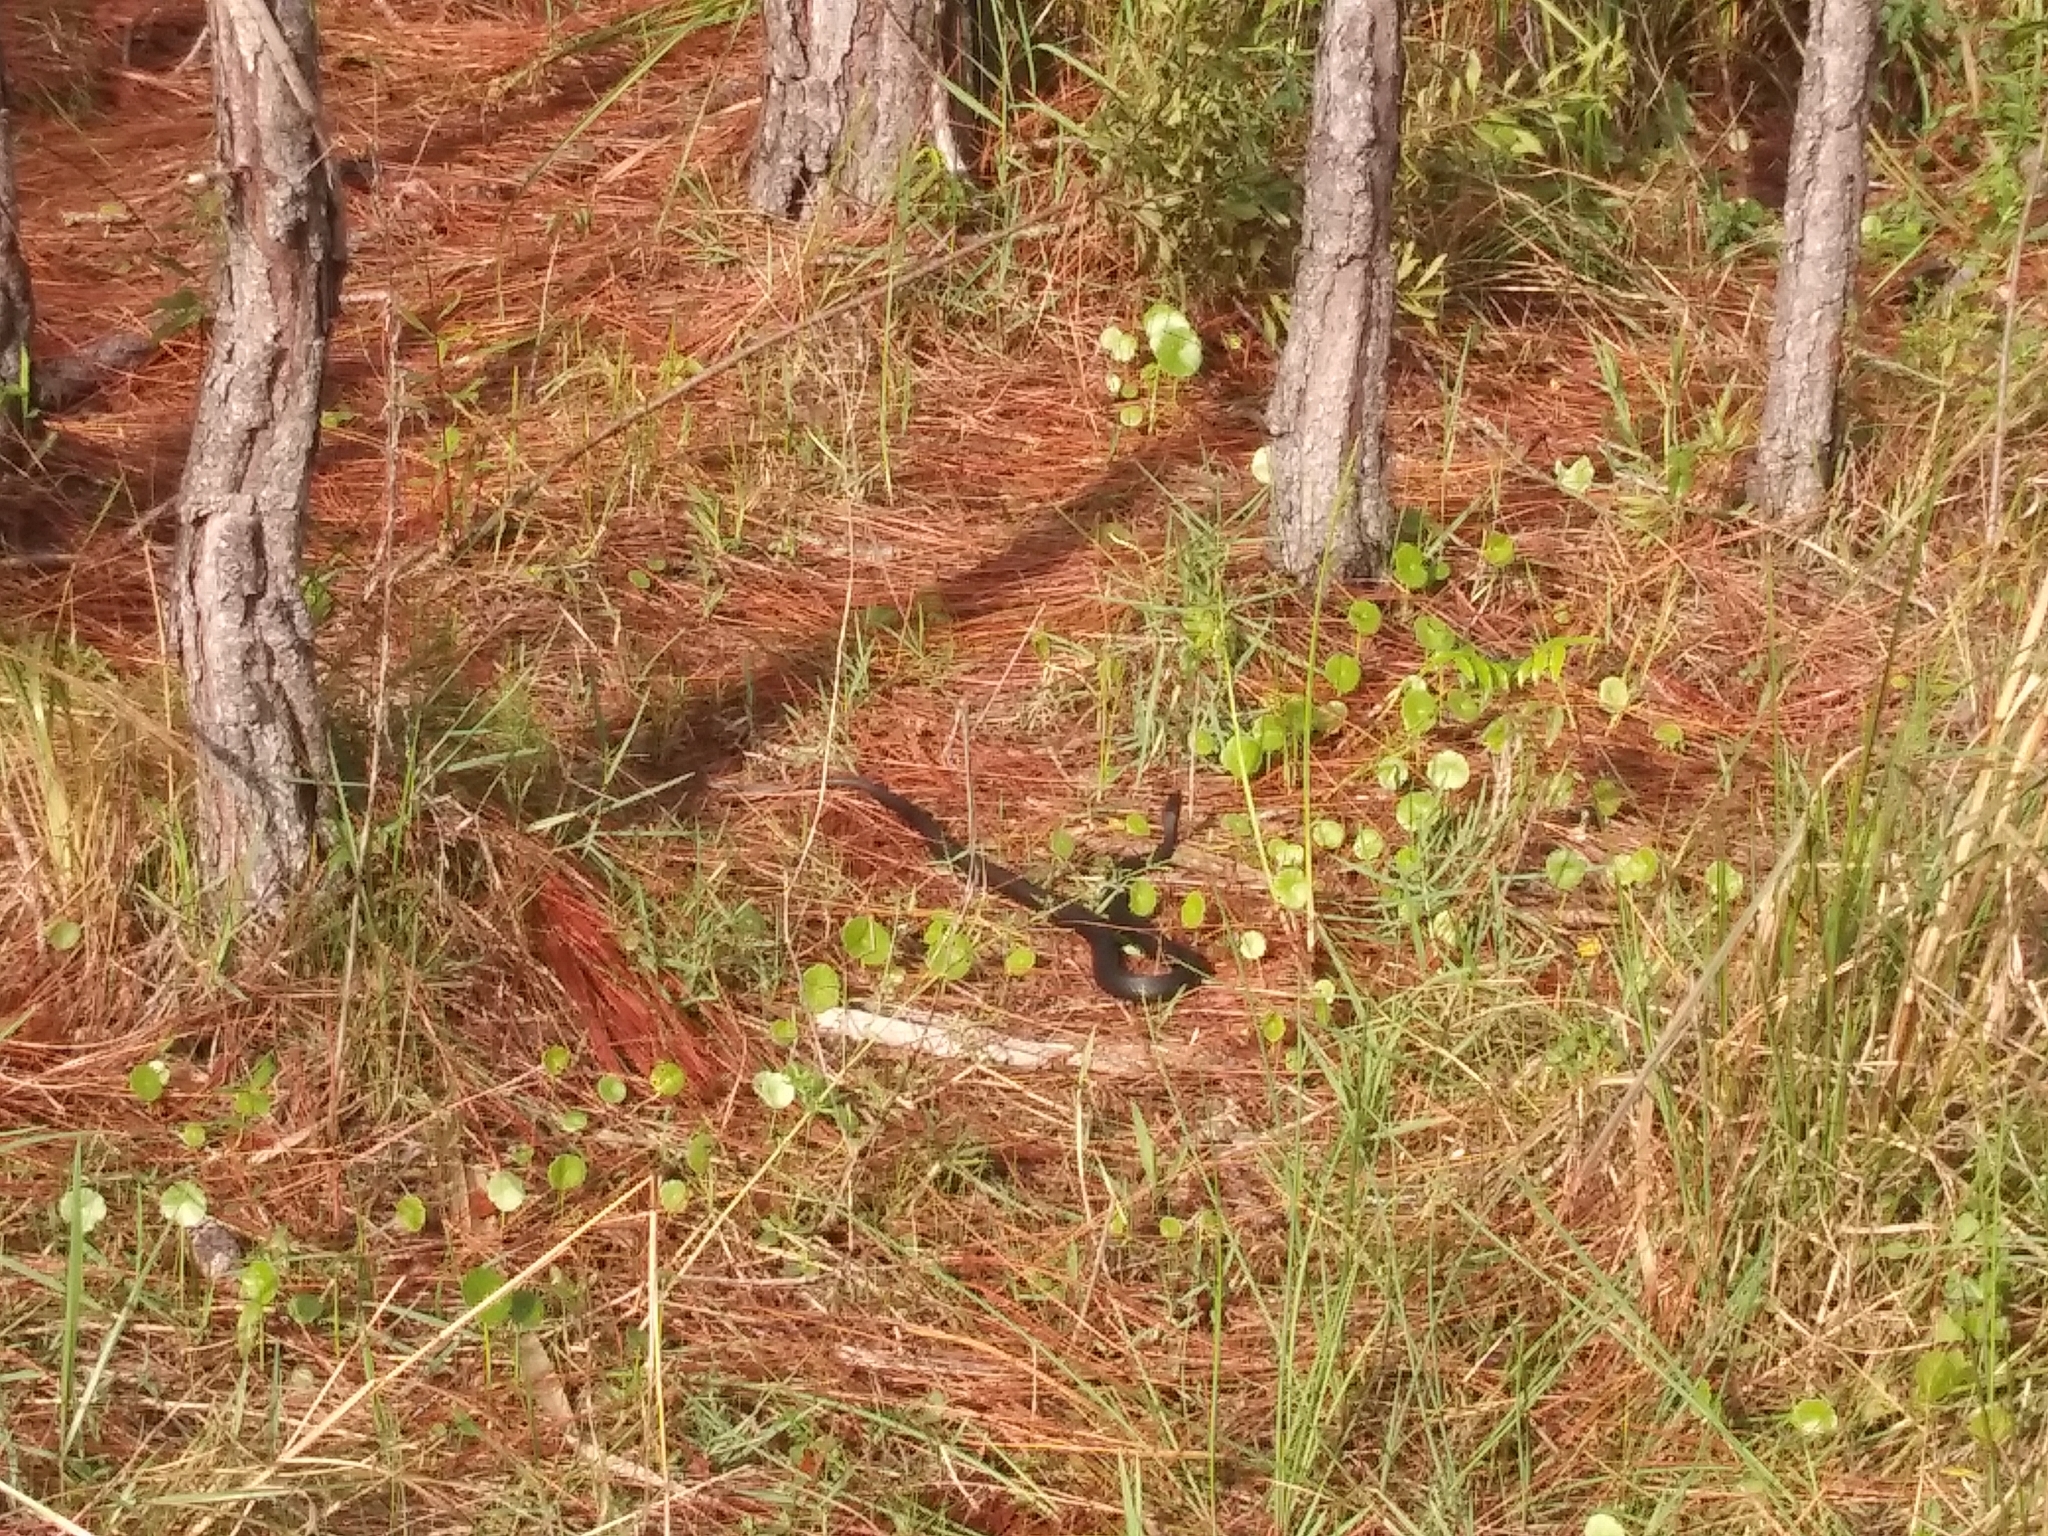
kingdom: Animalia
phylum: Chordata
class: Squamata
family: Colubridae
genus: Coluber
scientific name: Coluber constrictor
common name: Eastern racer
